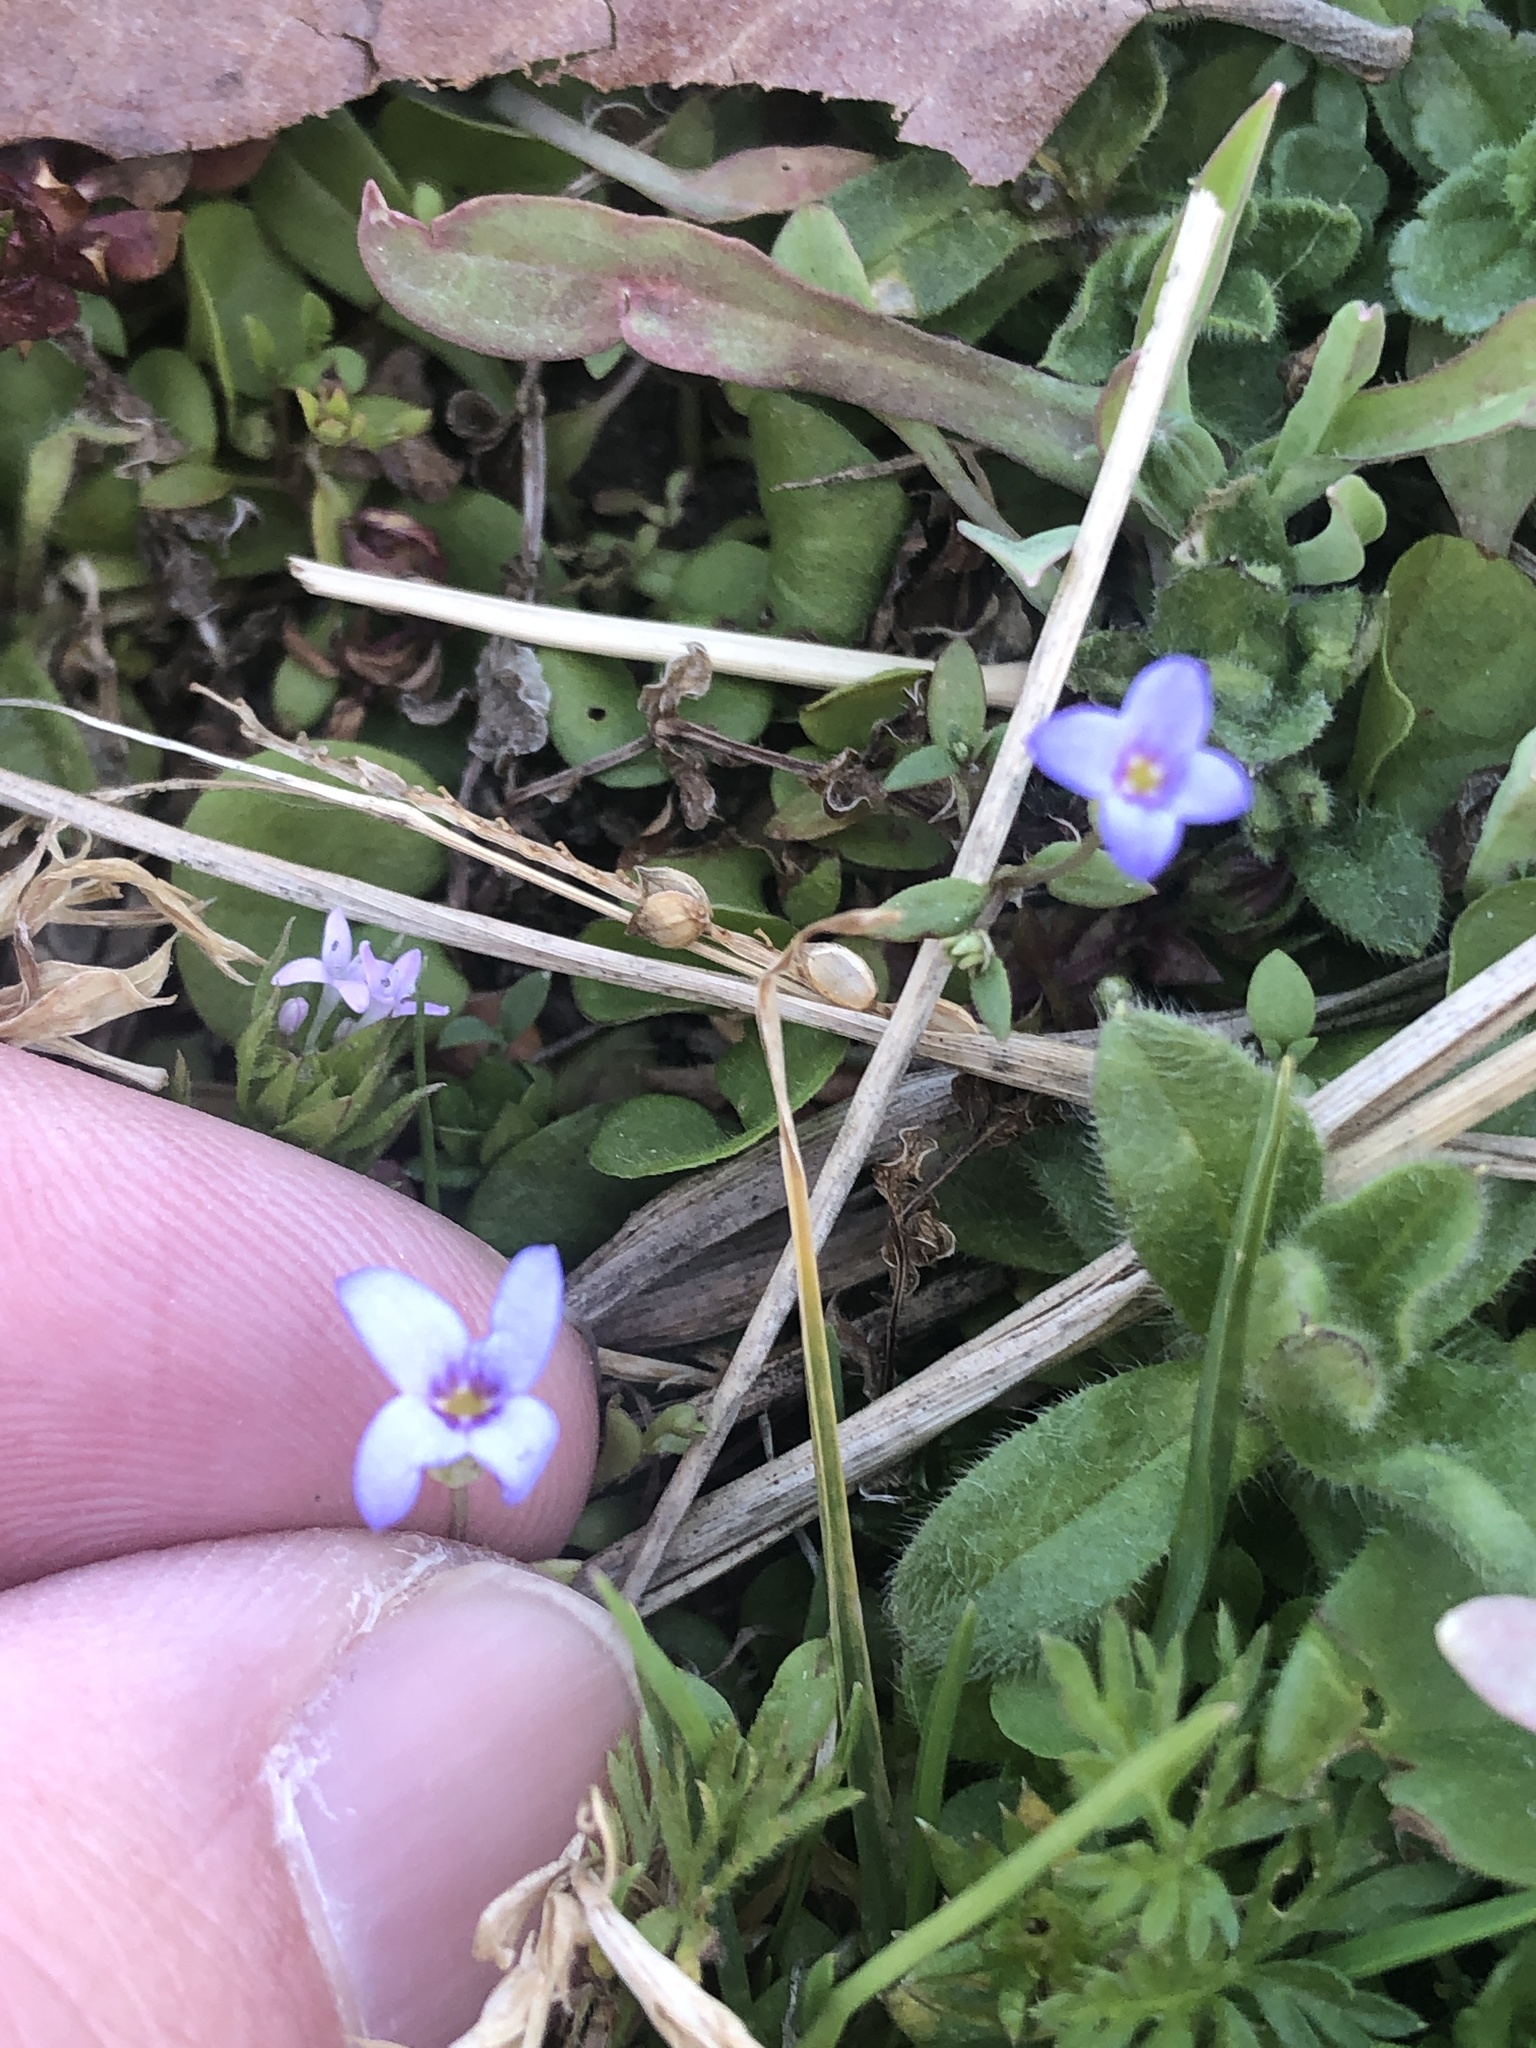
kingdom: Plantae
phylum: Tracheophyta
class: Magnoliopsida
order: Gentianales
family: Rubiaceae
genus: Houstonia
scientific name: Houstonia pusilla
